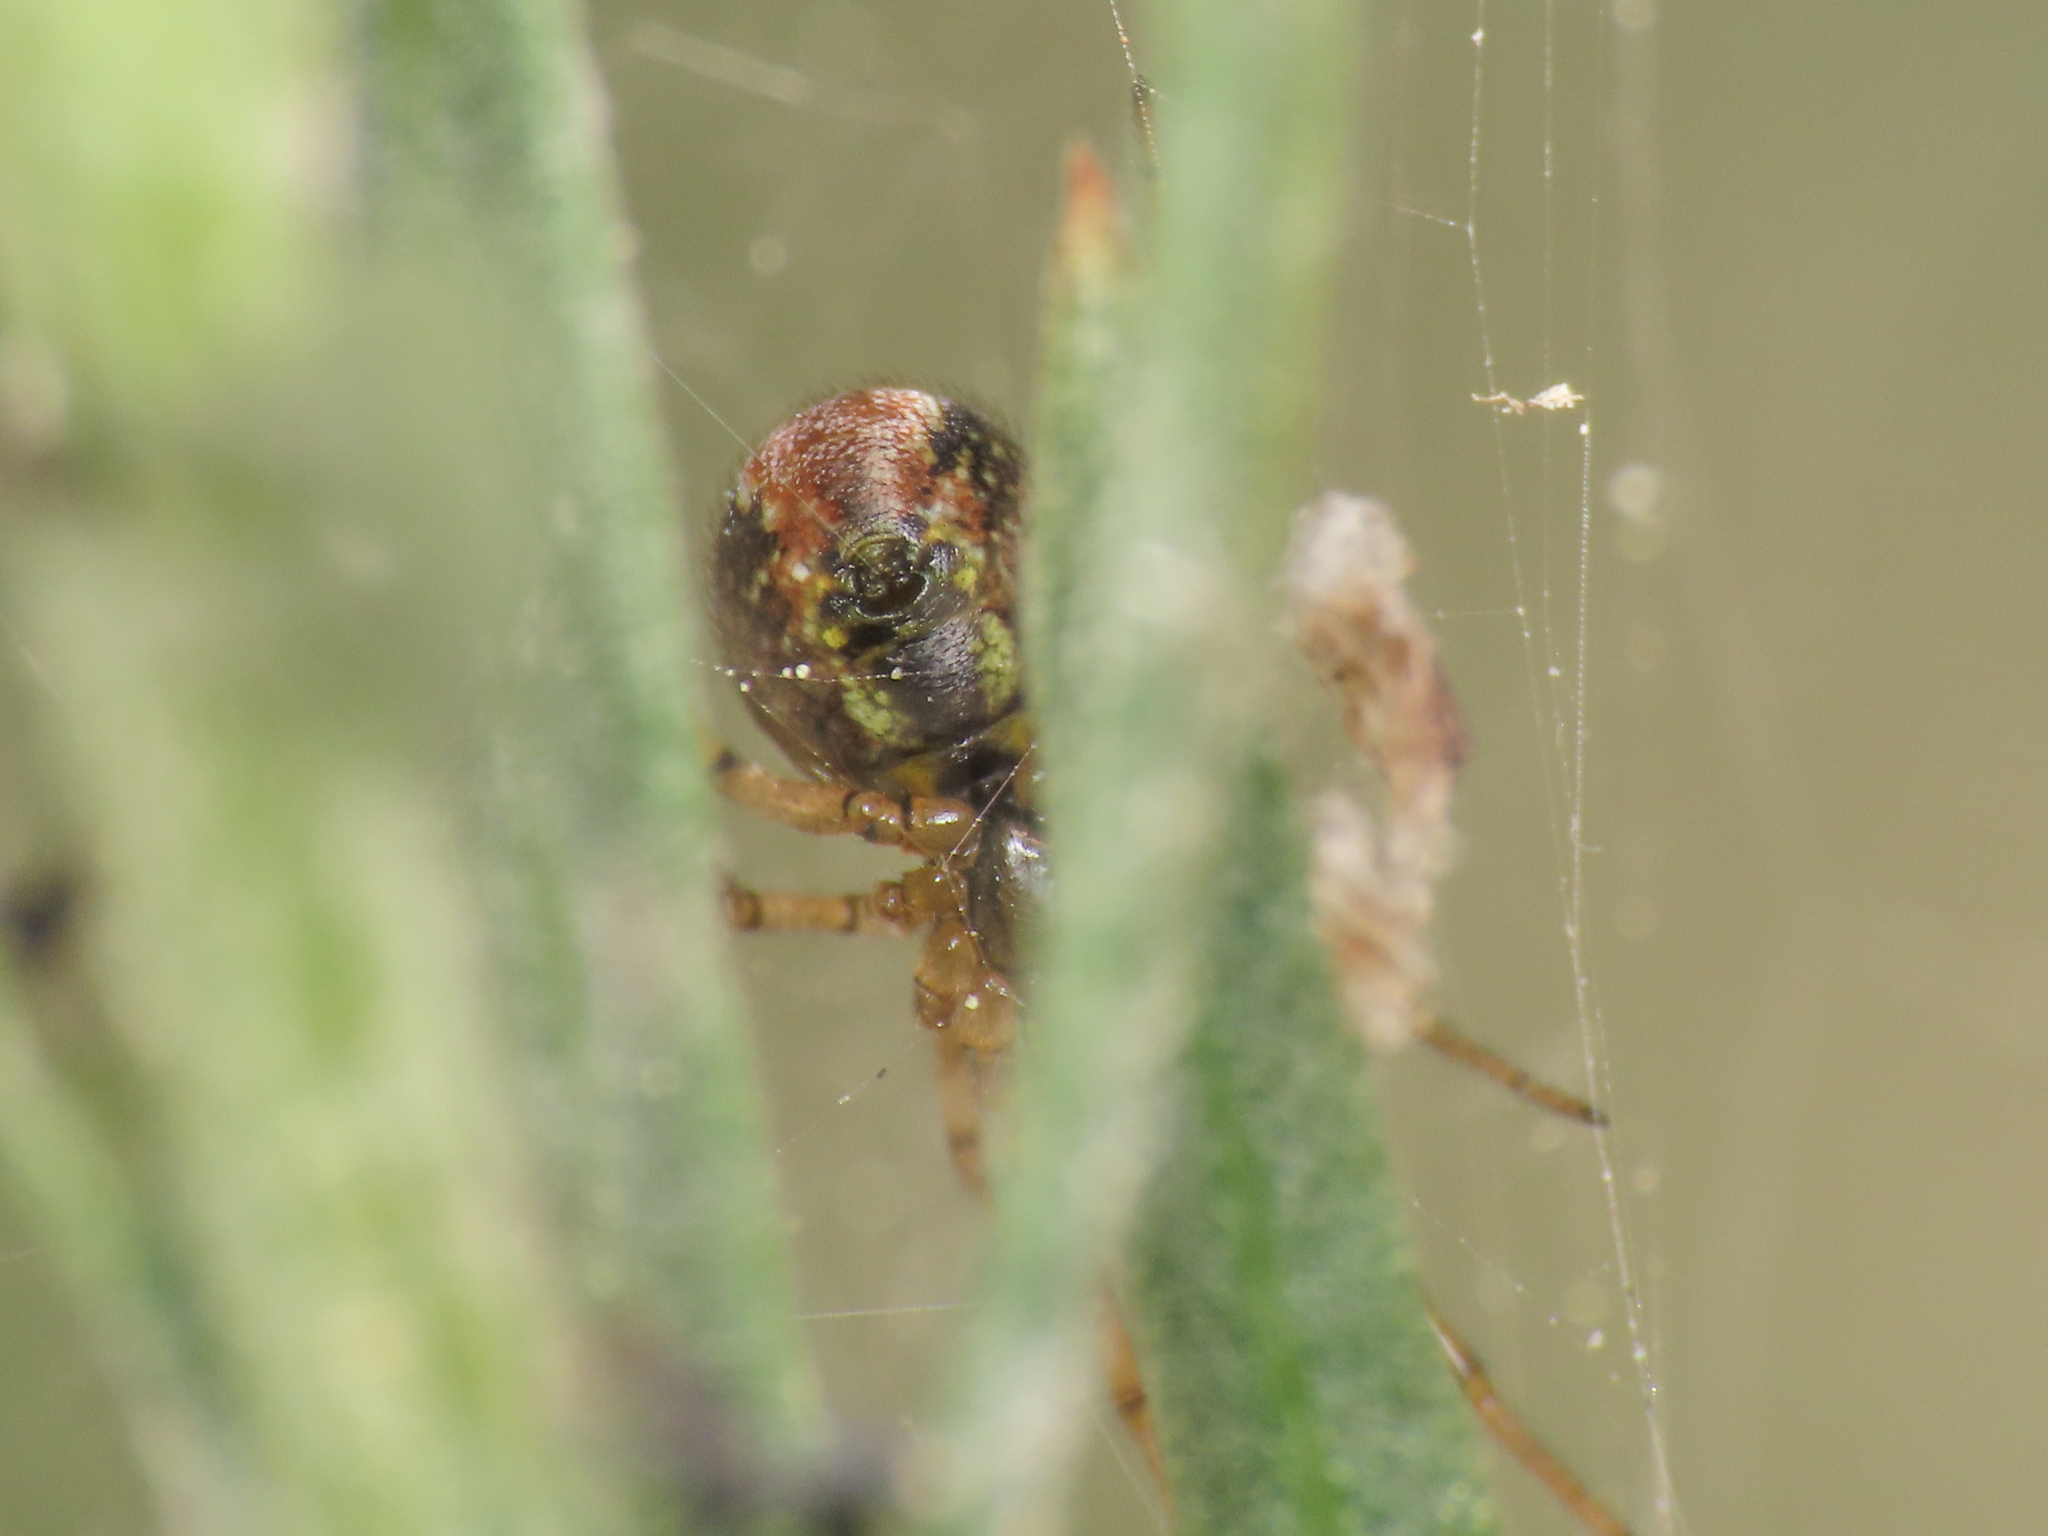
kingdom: Animalia
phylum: Arthropoda
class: Arachnida
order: Araneae
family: Theridiidae
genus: Kochiura
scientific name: Kochiura aulica
